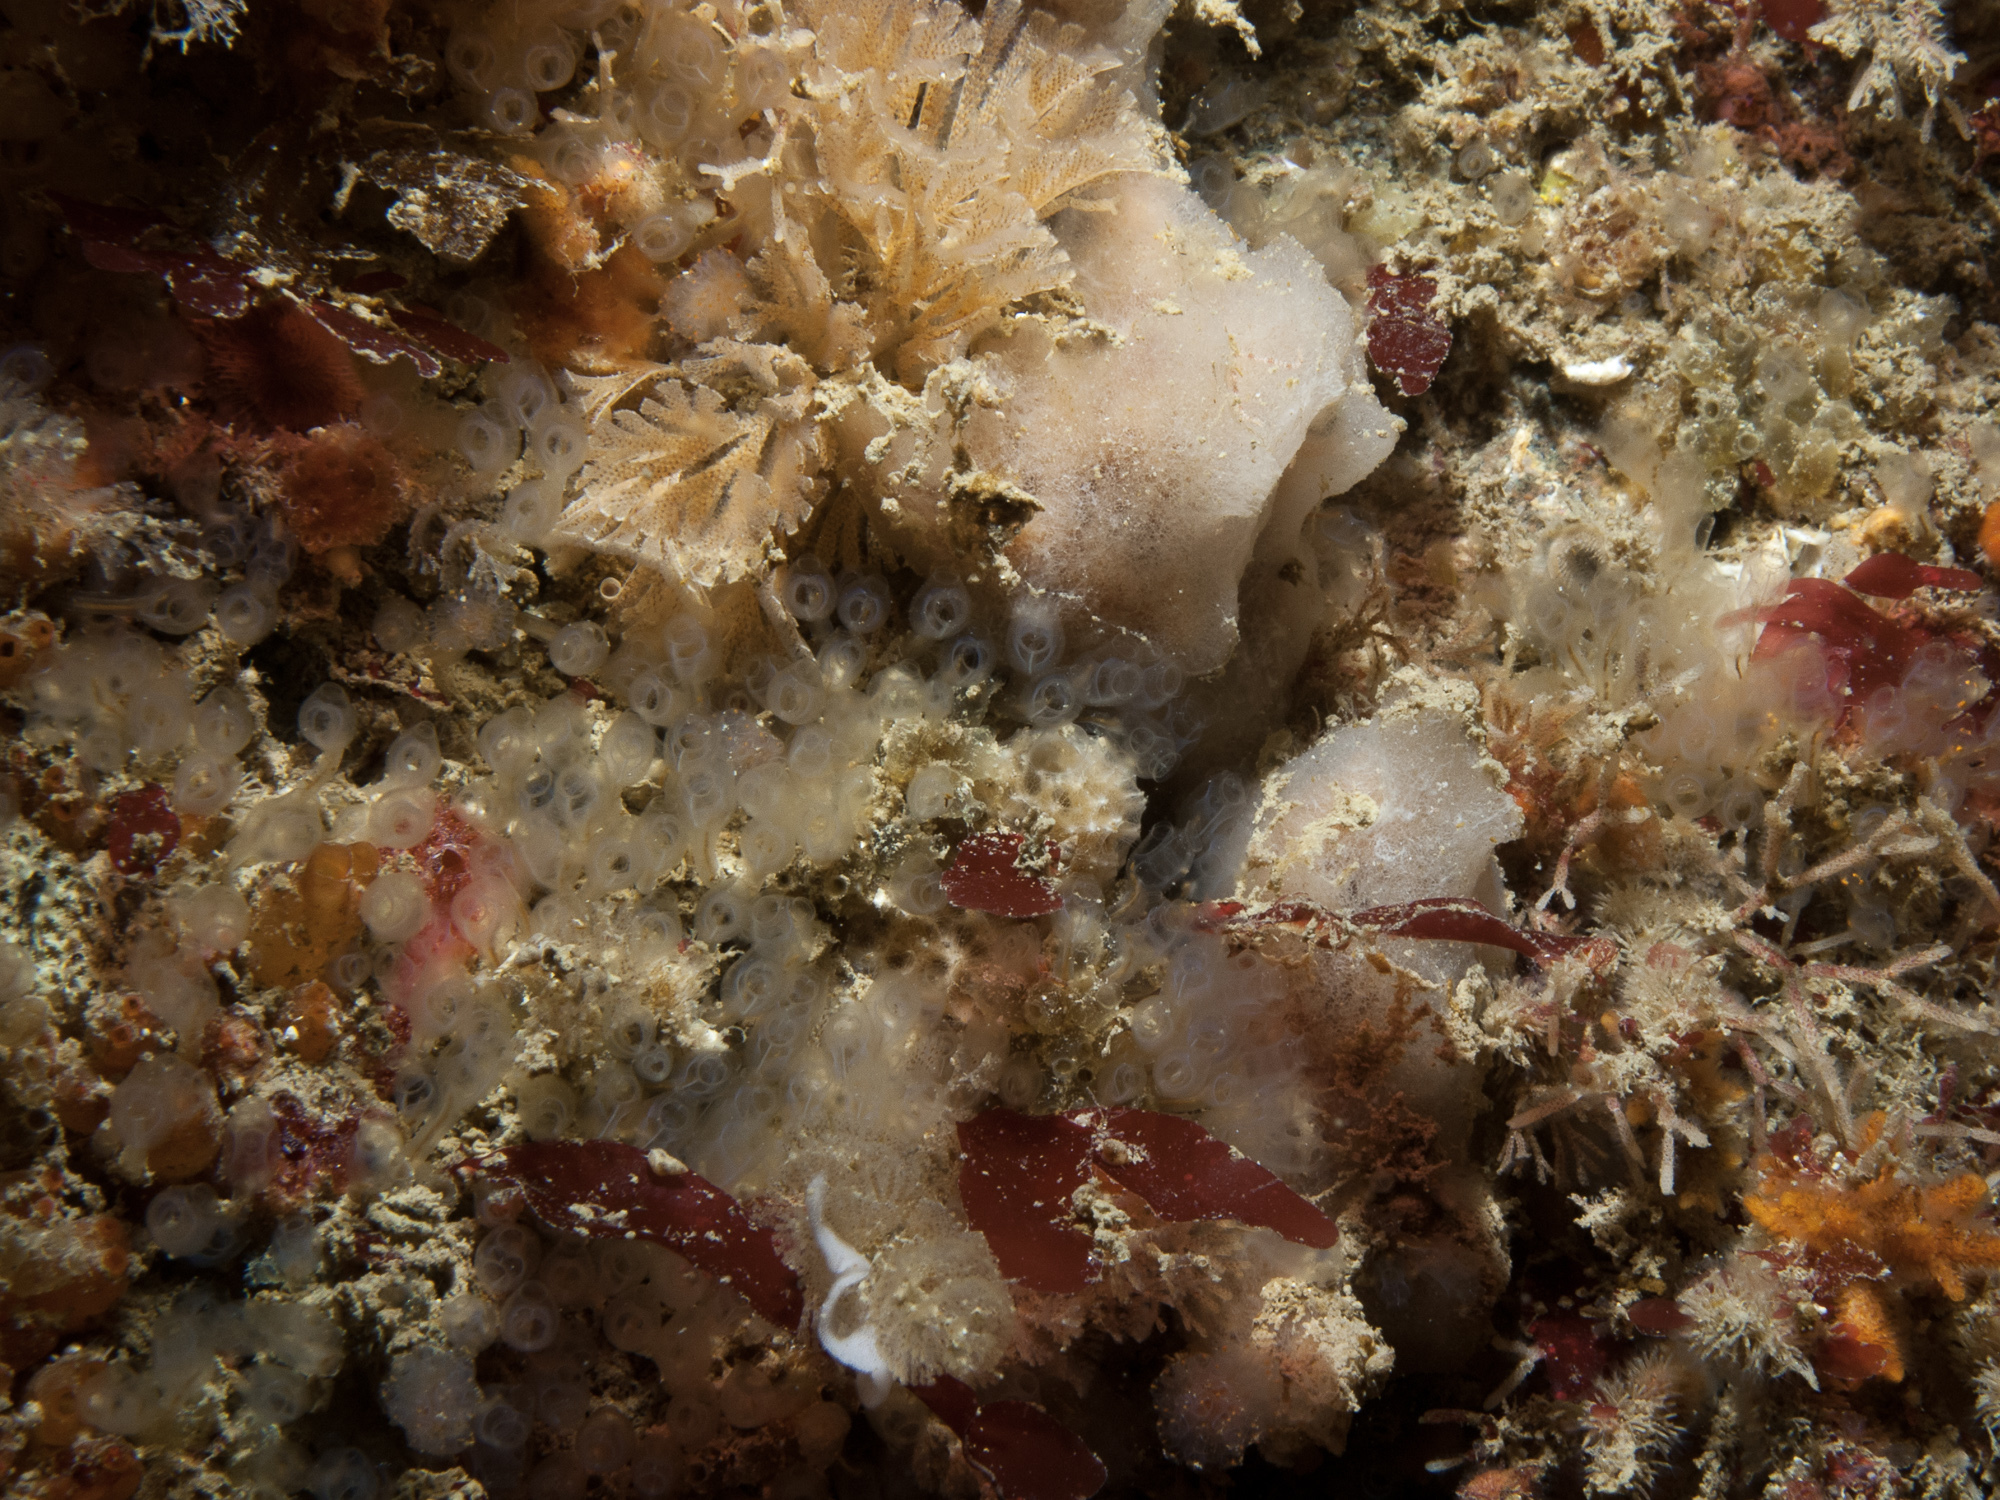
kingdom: Animalia
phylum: Chordata
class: Ascidiacea
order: Aplousobranchia
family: Clavelinidae
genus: Pycnoclavella
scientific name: Pycnoclavella producta
